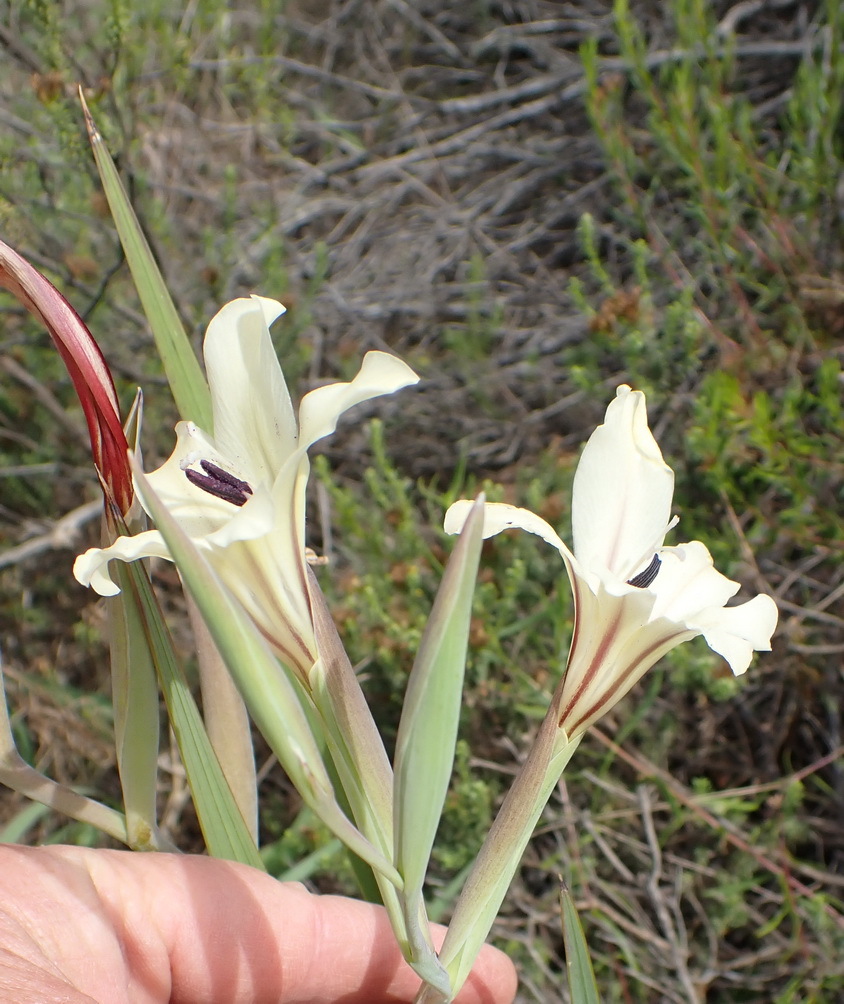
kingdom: Plantae
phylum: Tracheophyta
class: Liliopsida
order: Asparagales
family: Iridaceae
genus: Gladiolus
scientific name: Gladiolus floribundus
